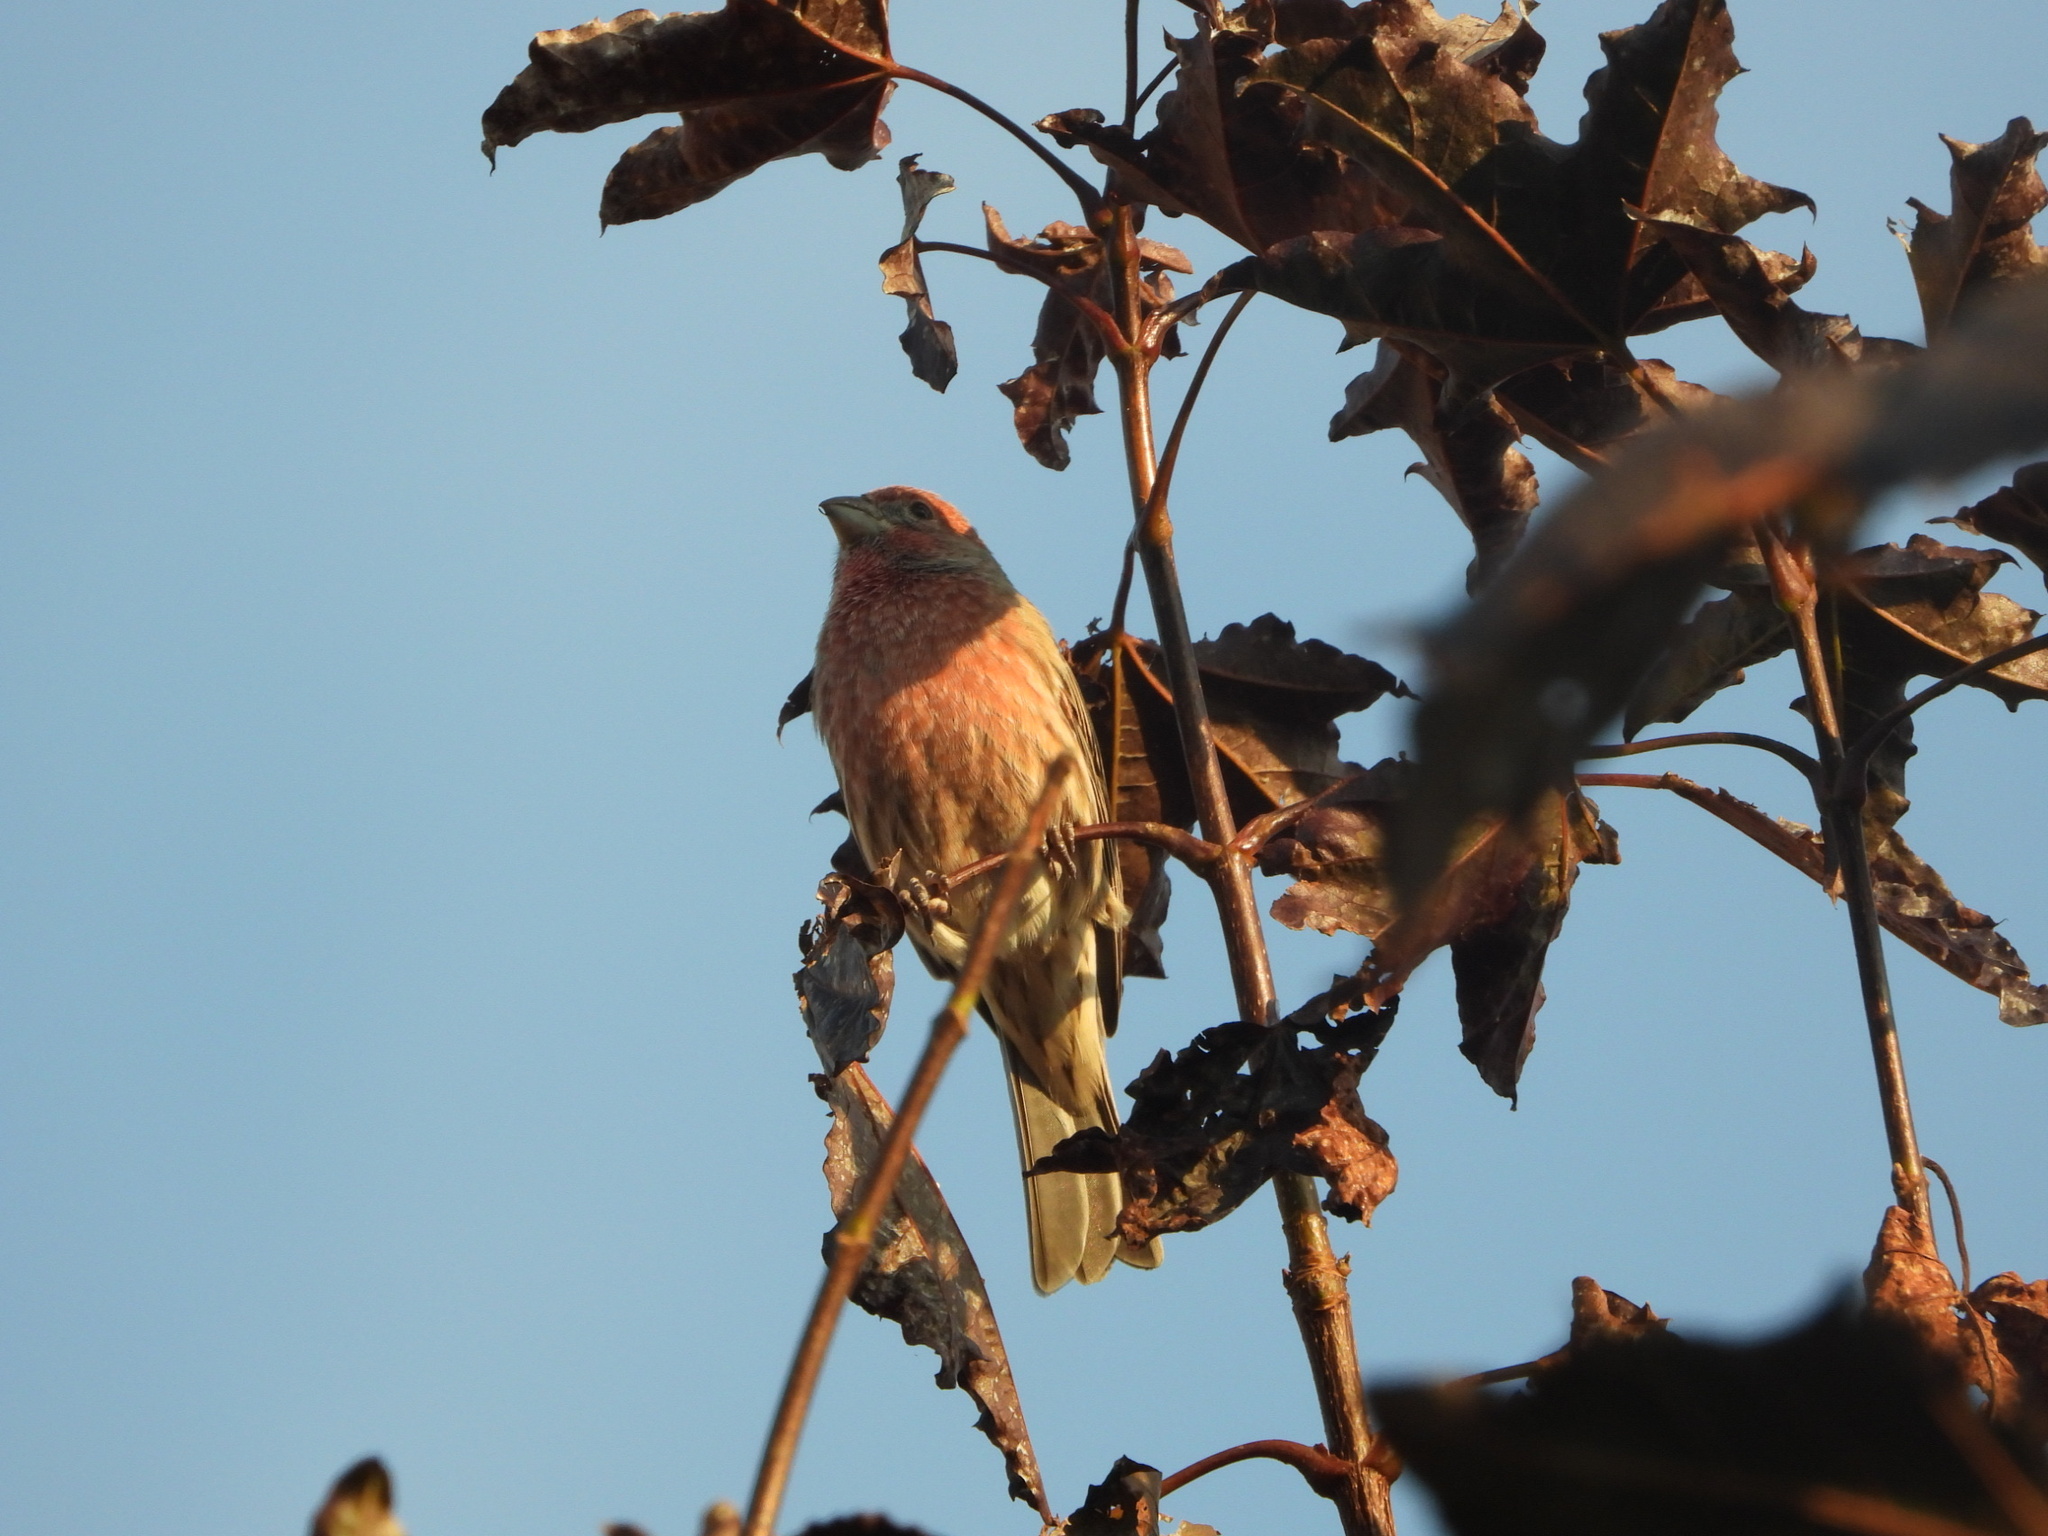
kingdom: Animalia
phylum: Chordata
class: Aves
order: Passeriformes
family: Fringillidae
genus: Haemorhous
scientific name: Haemorhous mexicanus
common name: House finch
